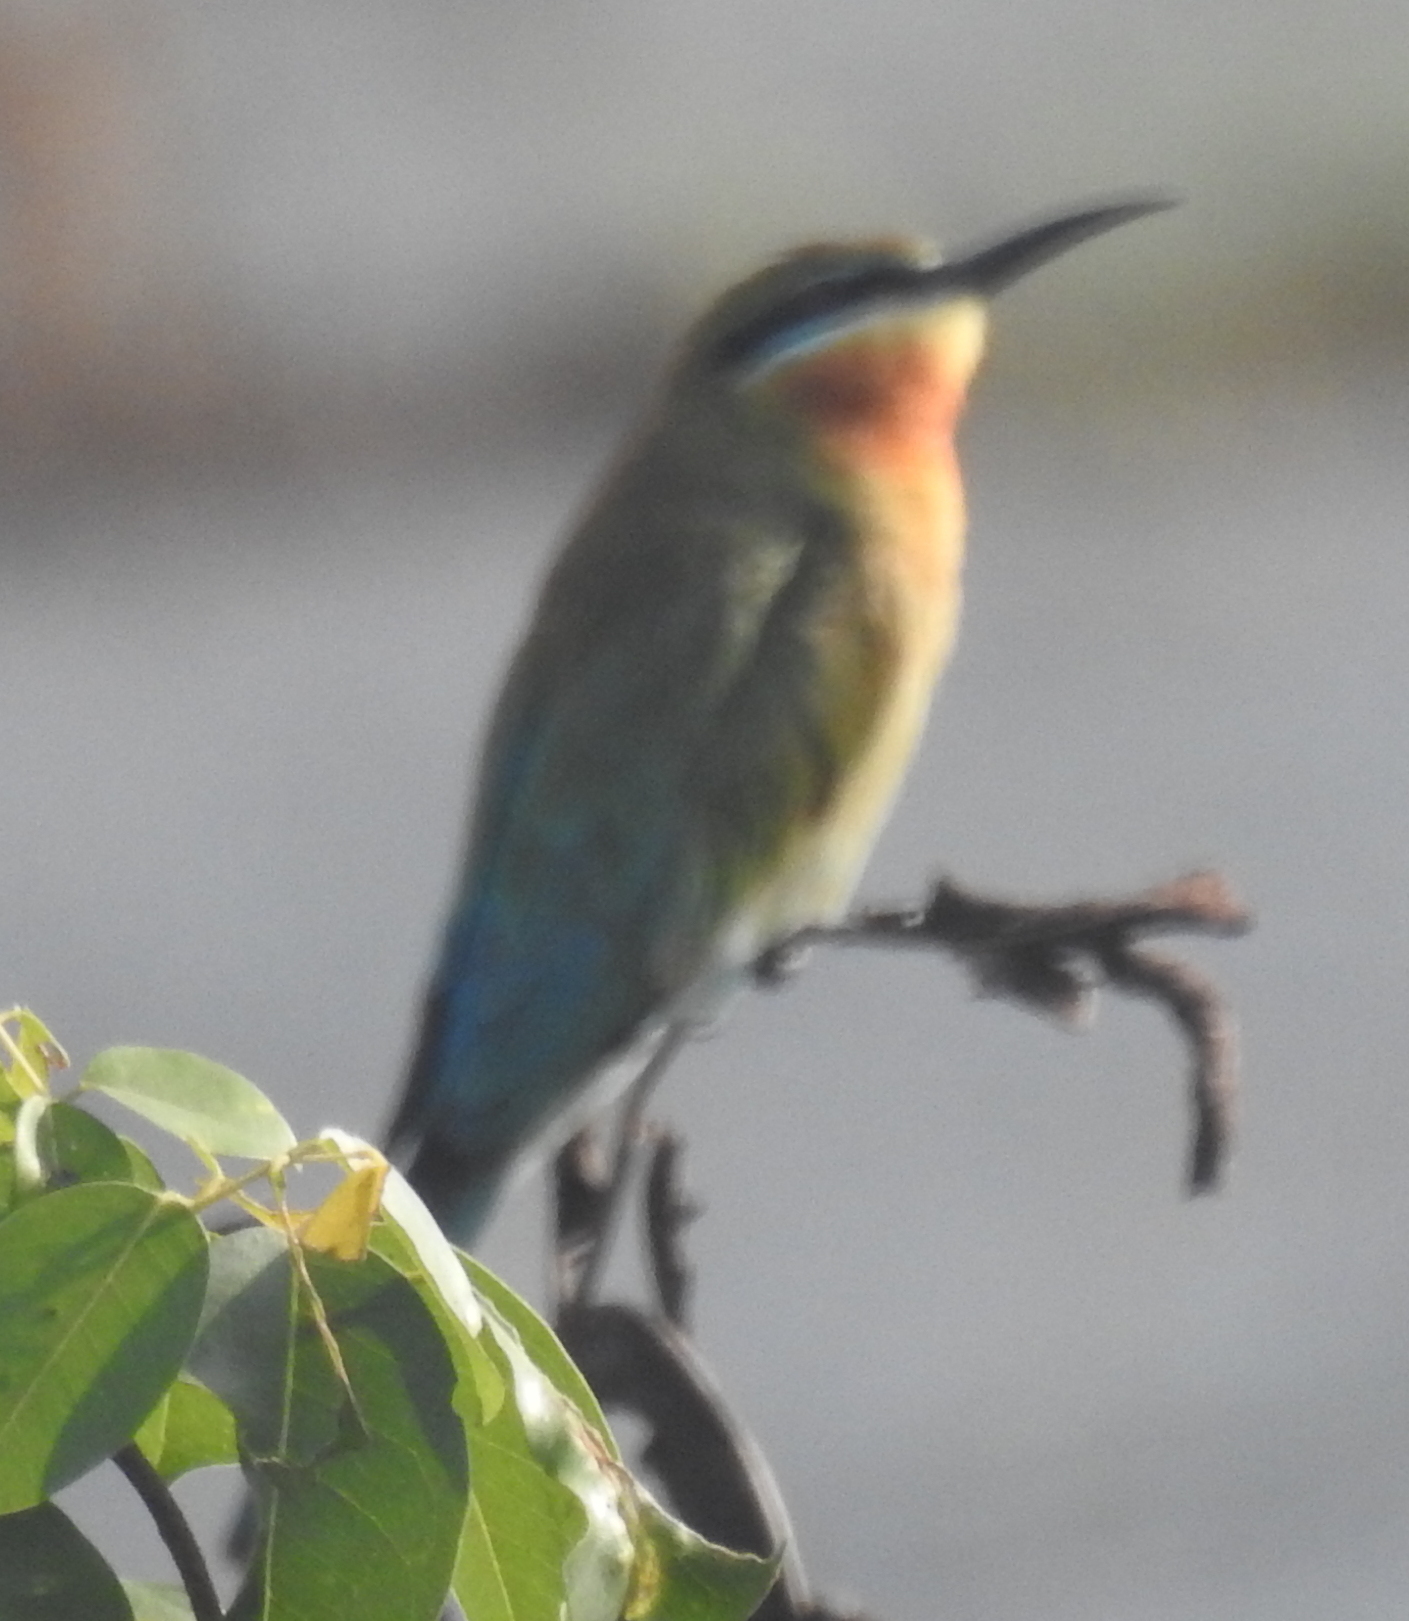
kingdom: Animalia
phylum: Chordata
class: Aves
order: Coraciiformes
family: Meropidae
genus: Merops
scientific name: Merops philippinus
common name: Blue-tailed bee-eater
